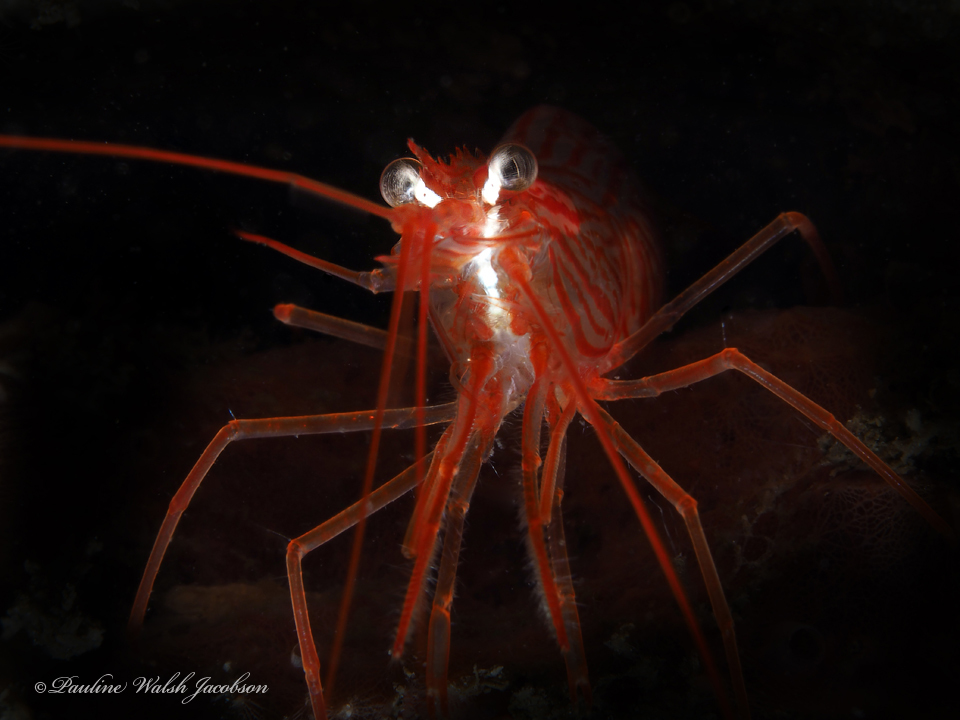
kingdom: Animalia
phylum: Arthropoda
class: Malacostraca
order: Decapoda
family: Lysmatidae
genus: Lysmata
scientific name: Lysmata rafa
